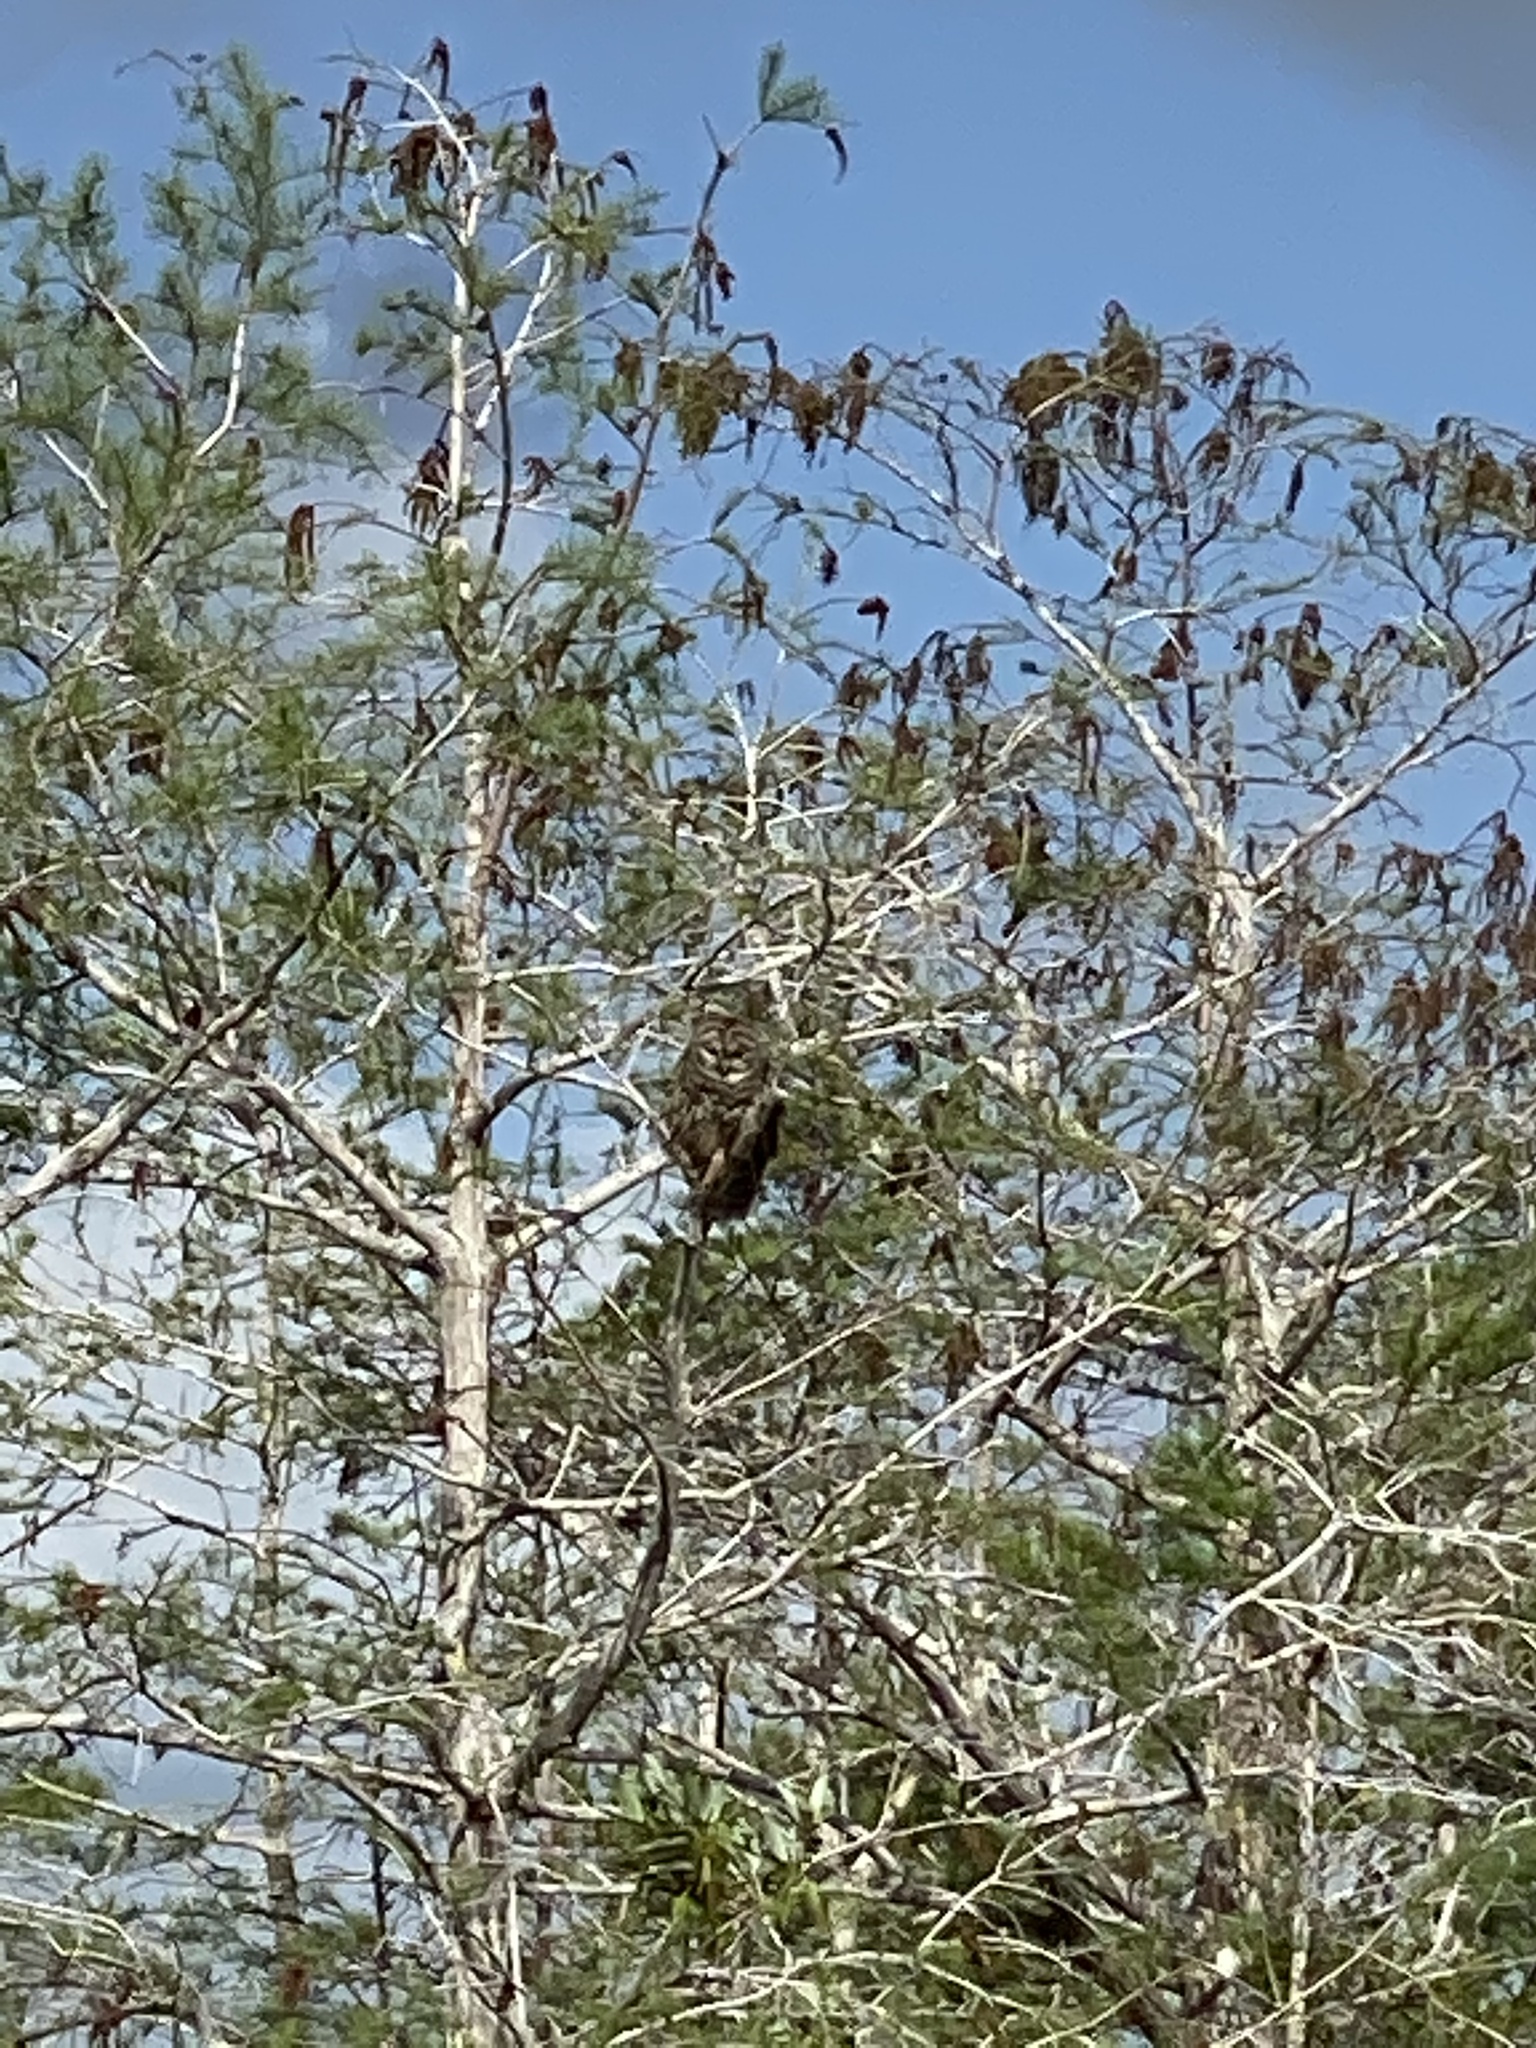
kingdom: Animalia
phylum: Chordata
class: Aves
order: Strigiformes
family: Strigidae
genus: Strix
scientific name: Strix varia
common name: Barred owl
